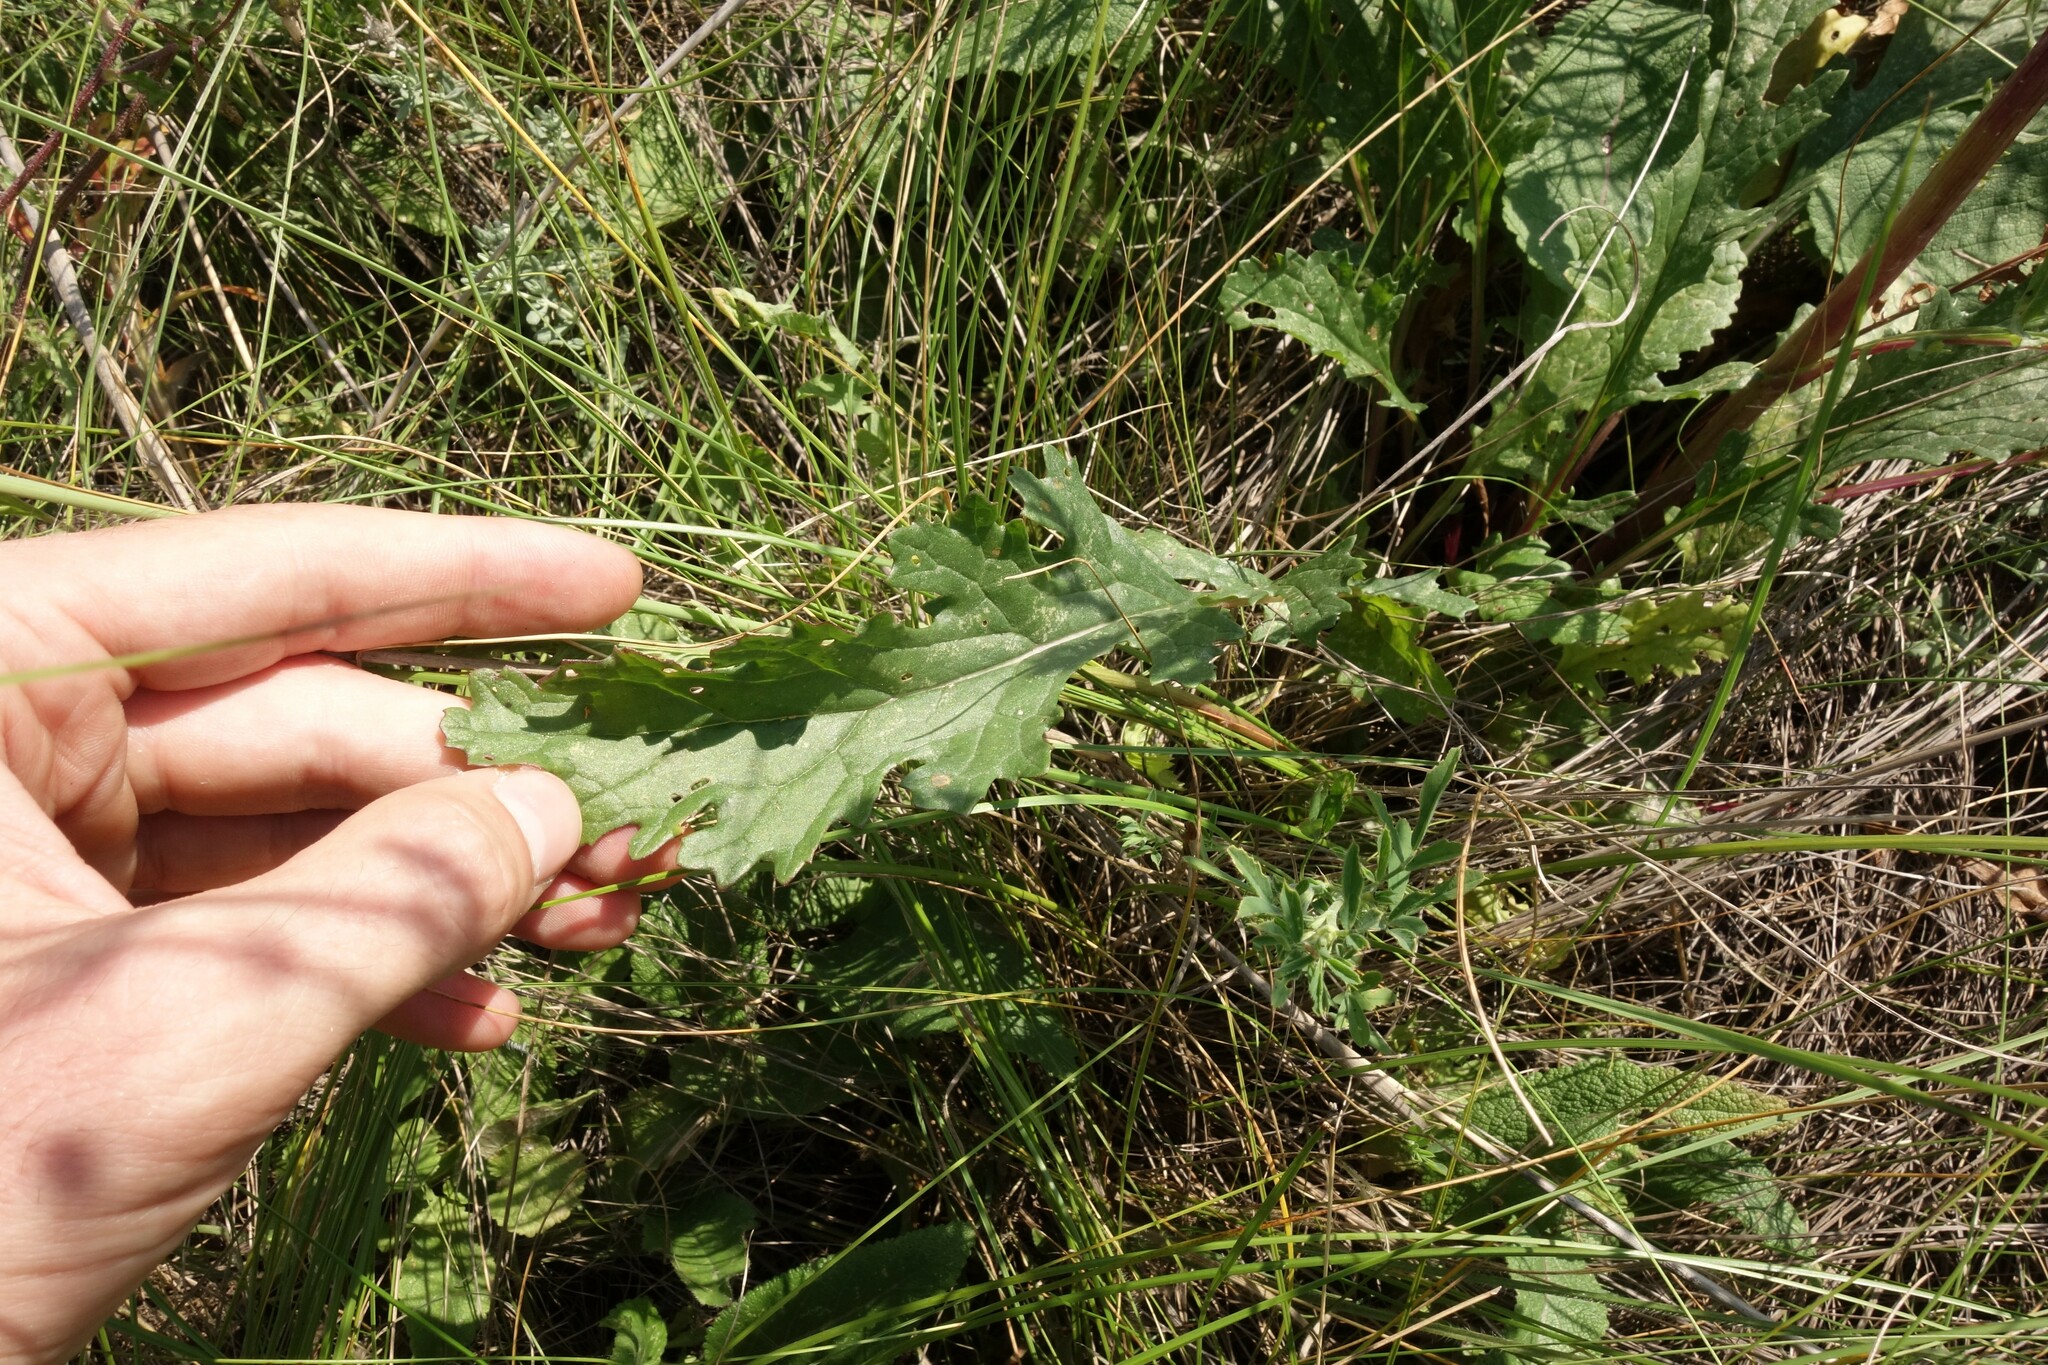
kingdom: Plantae
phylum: Tracheophyta
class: Magnoliopsida
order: Asterales
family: Asteraceae
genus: Jacobaea
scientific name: Jacobaea vulgaris
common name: Stinking willie
